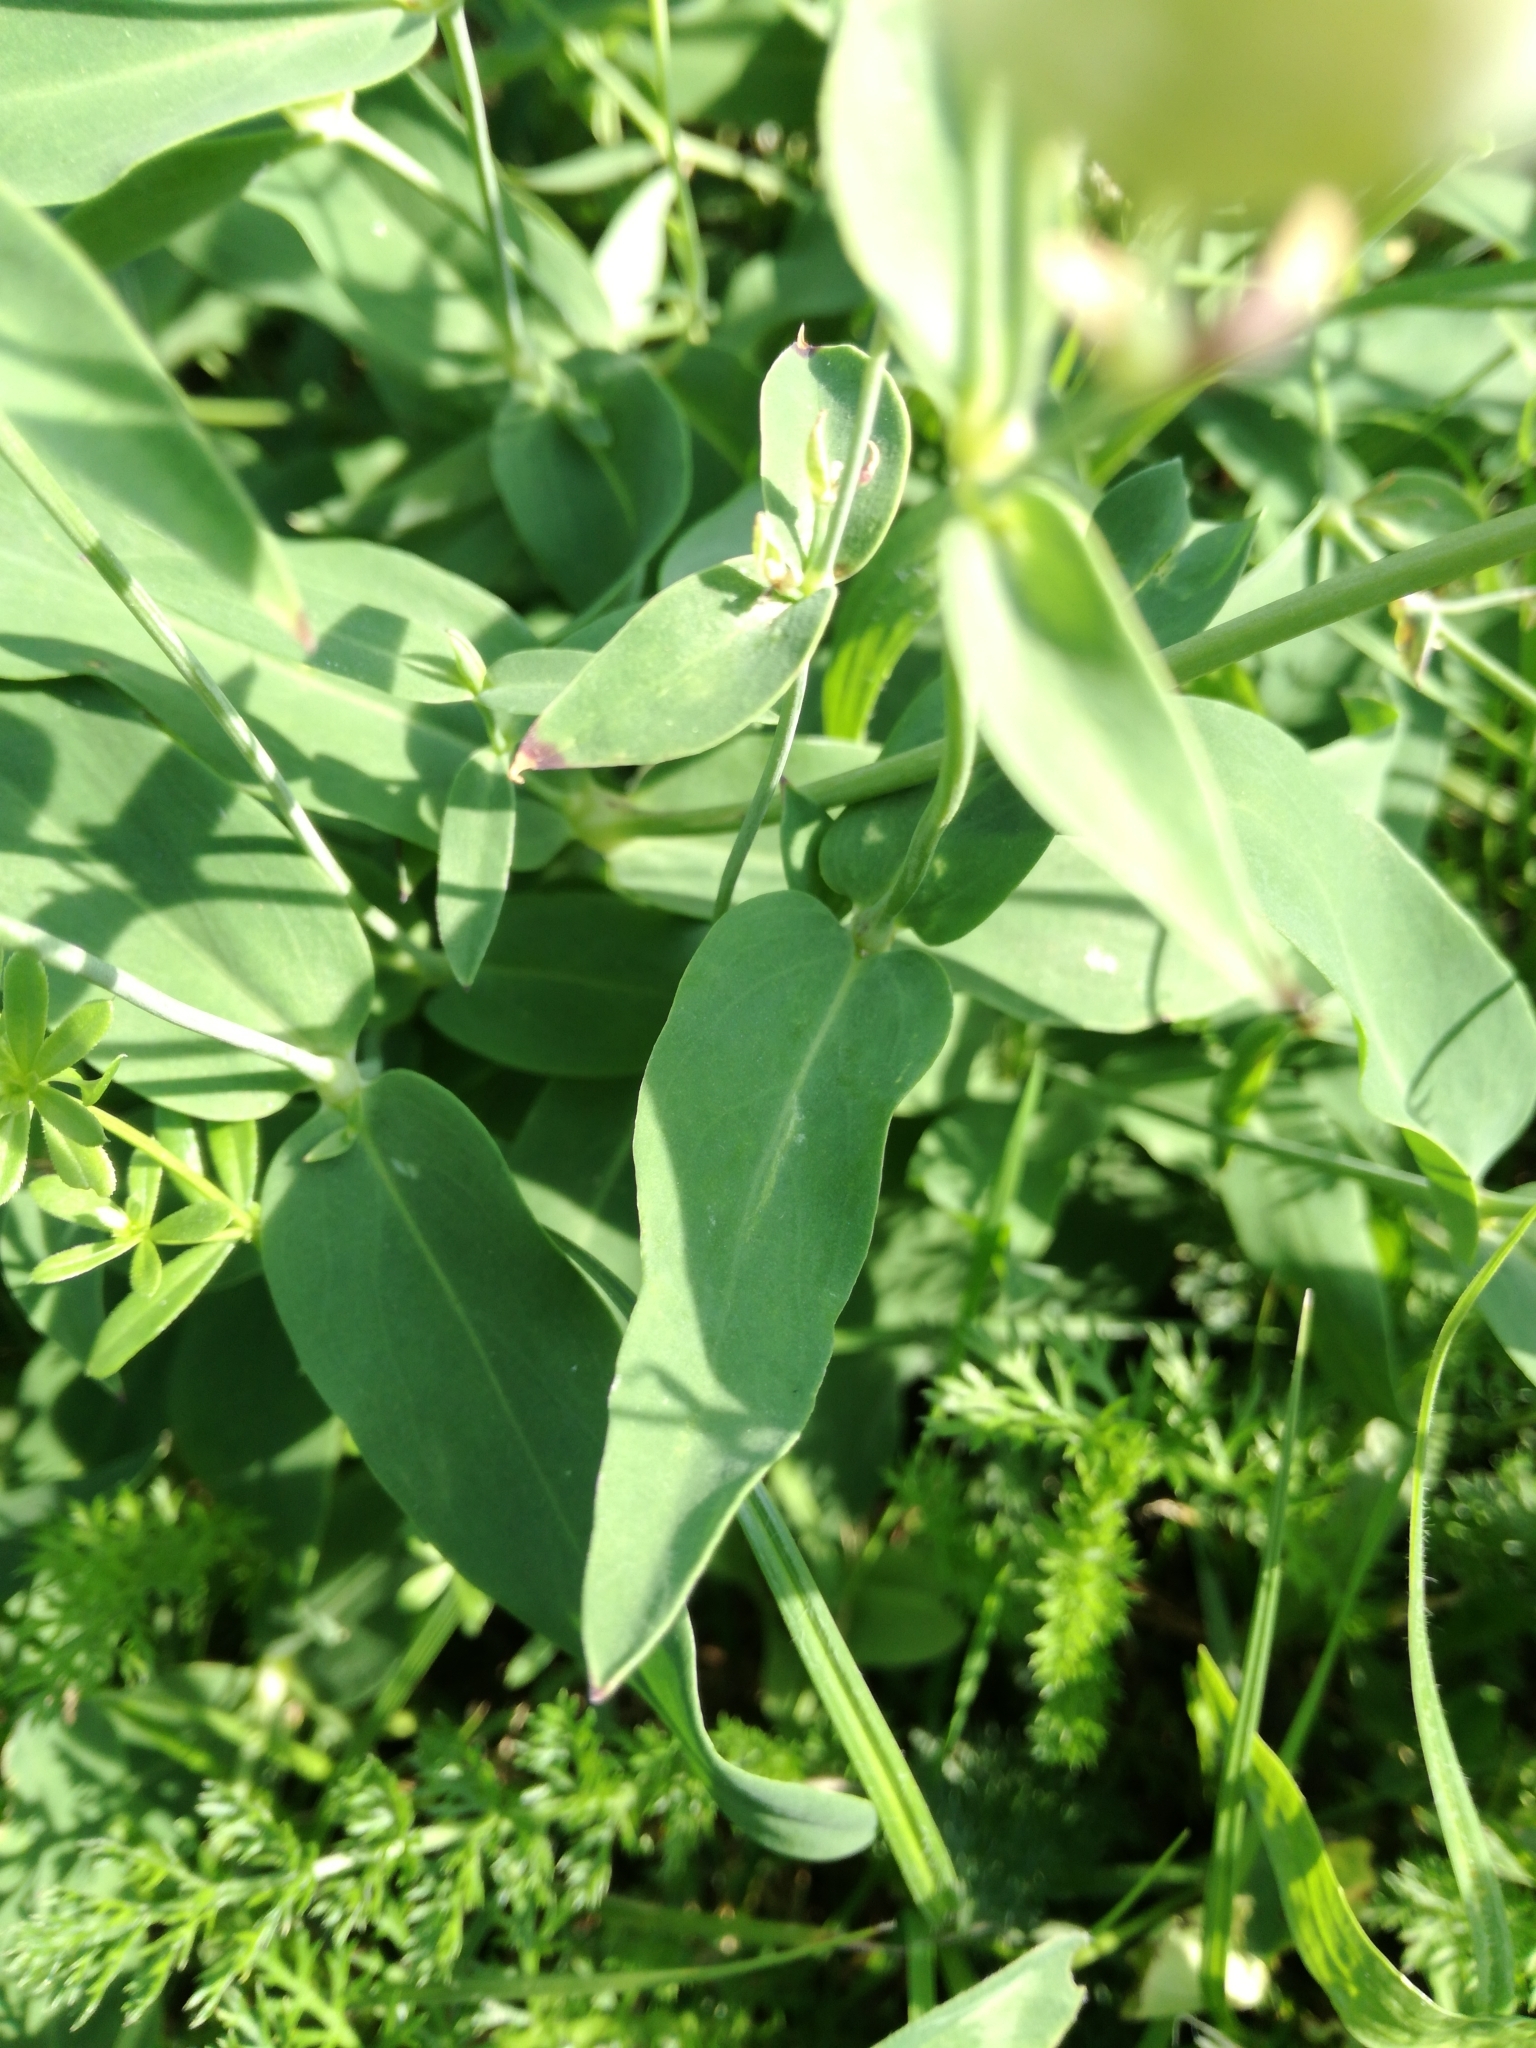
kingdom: Plantae
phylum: Tracheophyta
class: Magnoliopsida
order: Caryophyllales
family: Caryophyllaceae
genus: Silene
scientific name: Silene vulgaris
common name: Bladder campion
